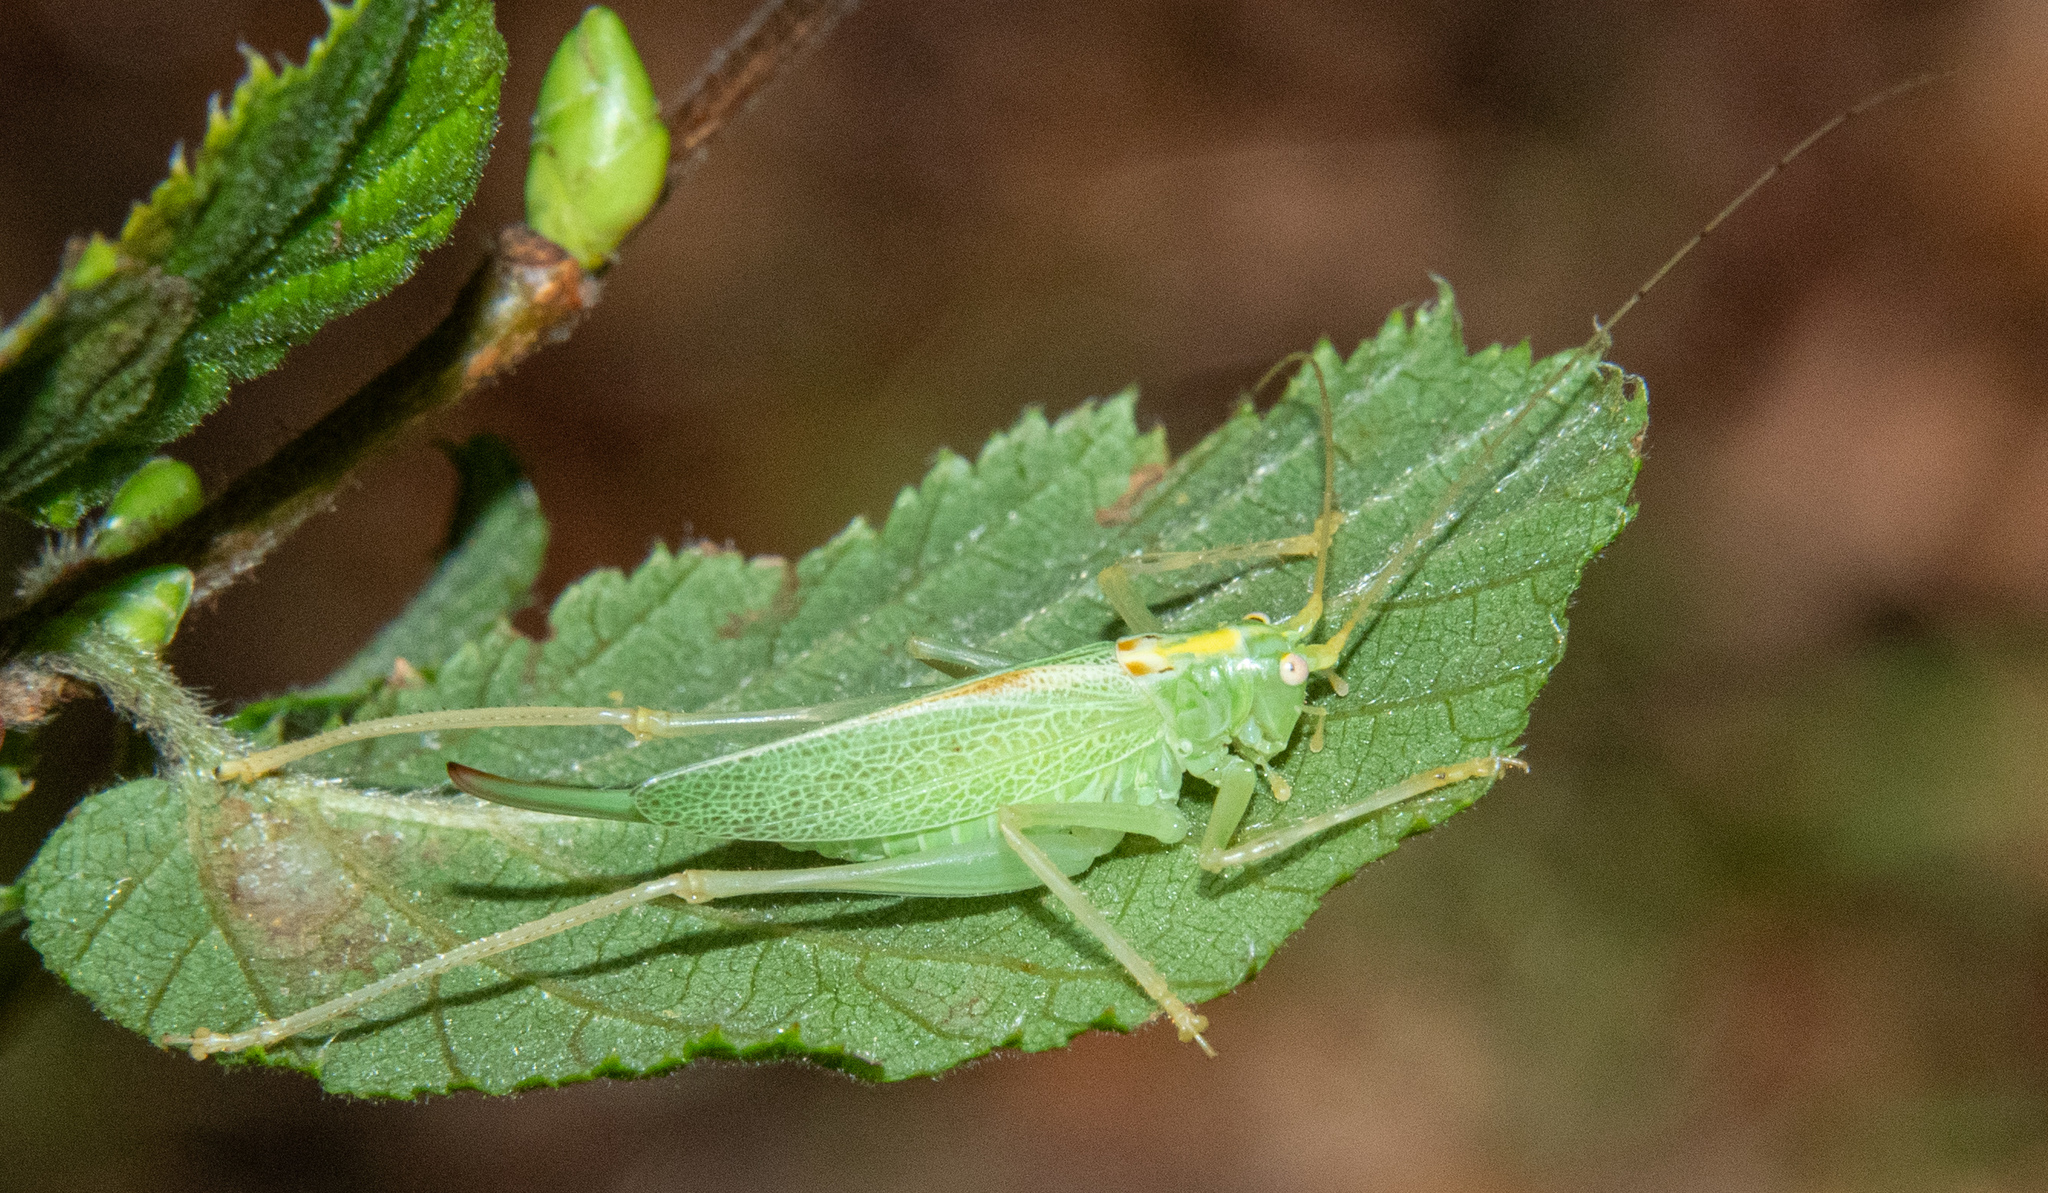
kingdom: Animalia
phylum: Arthropoda
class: Insecta
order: Orthoptera
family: Tettigoniidae
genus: Meconema
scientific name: Meconema thalassinum
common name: Oak bush-cricket
